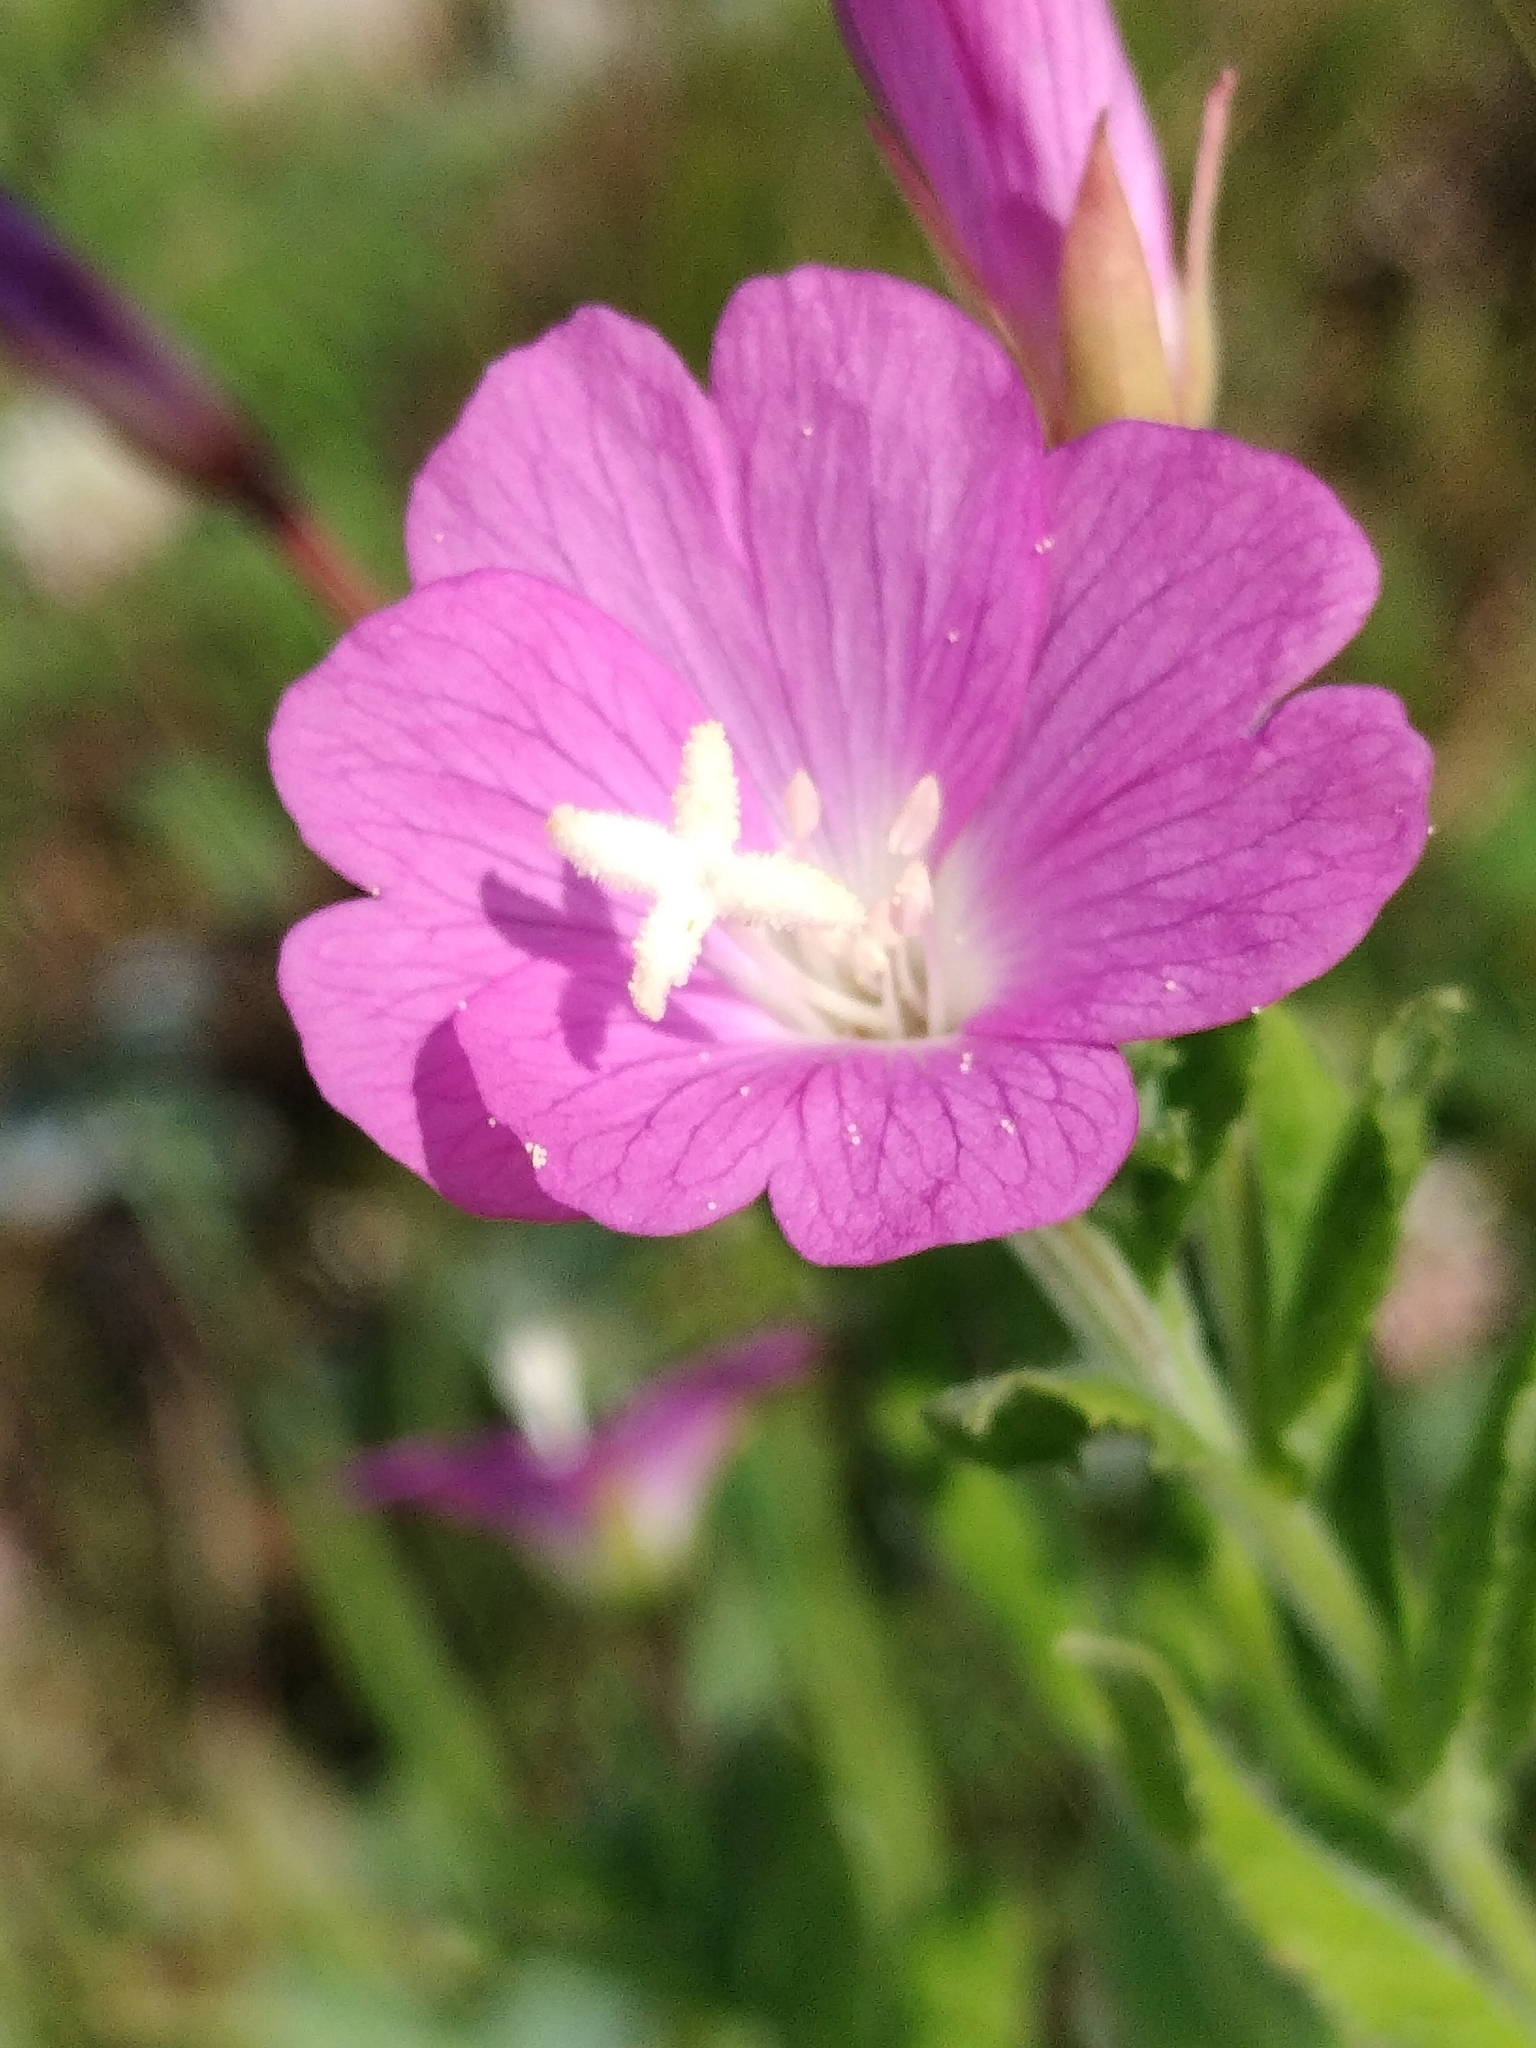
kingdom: Plantae
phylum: Tracheophyta
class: Magnoliopsida
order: Myrtales
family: Onagraceae
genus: Epilobium
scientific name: Epilobium hirsutum
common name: Great willowherb
